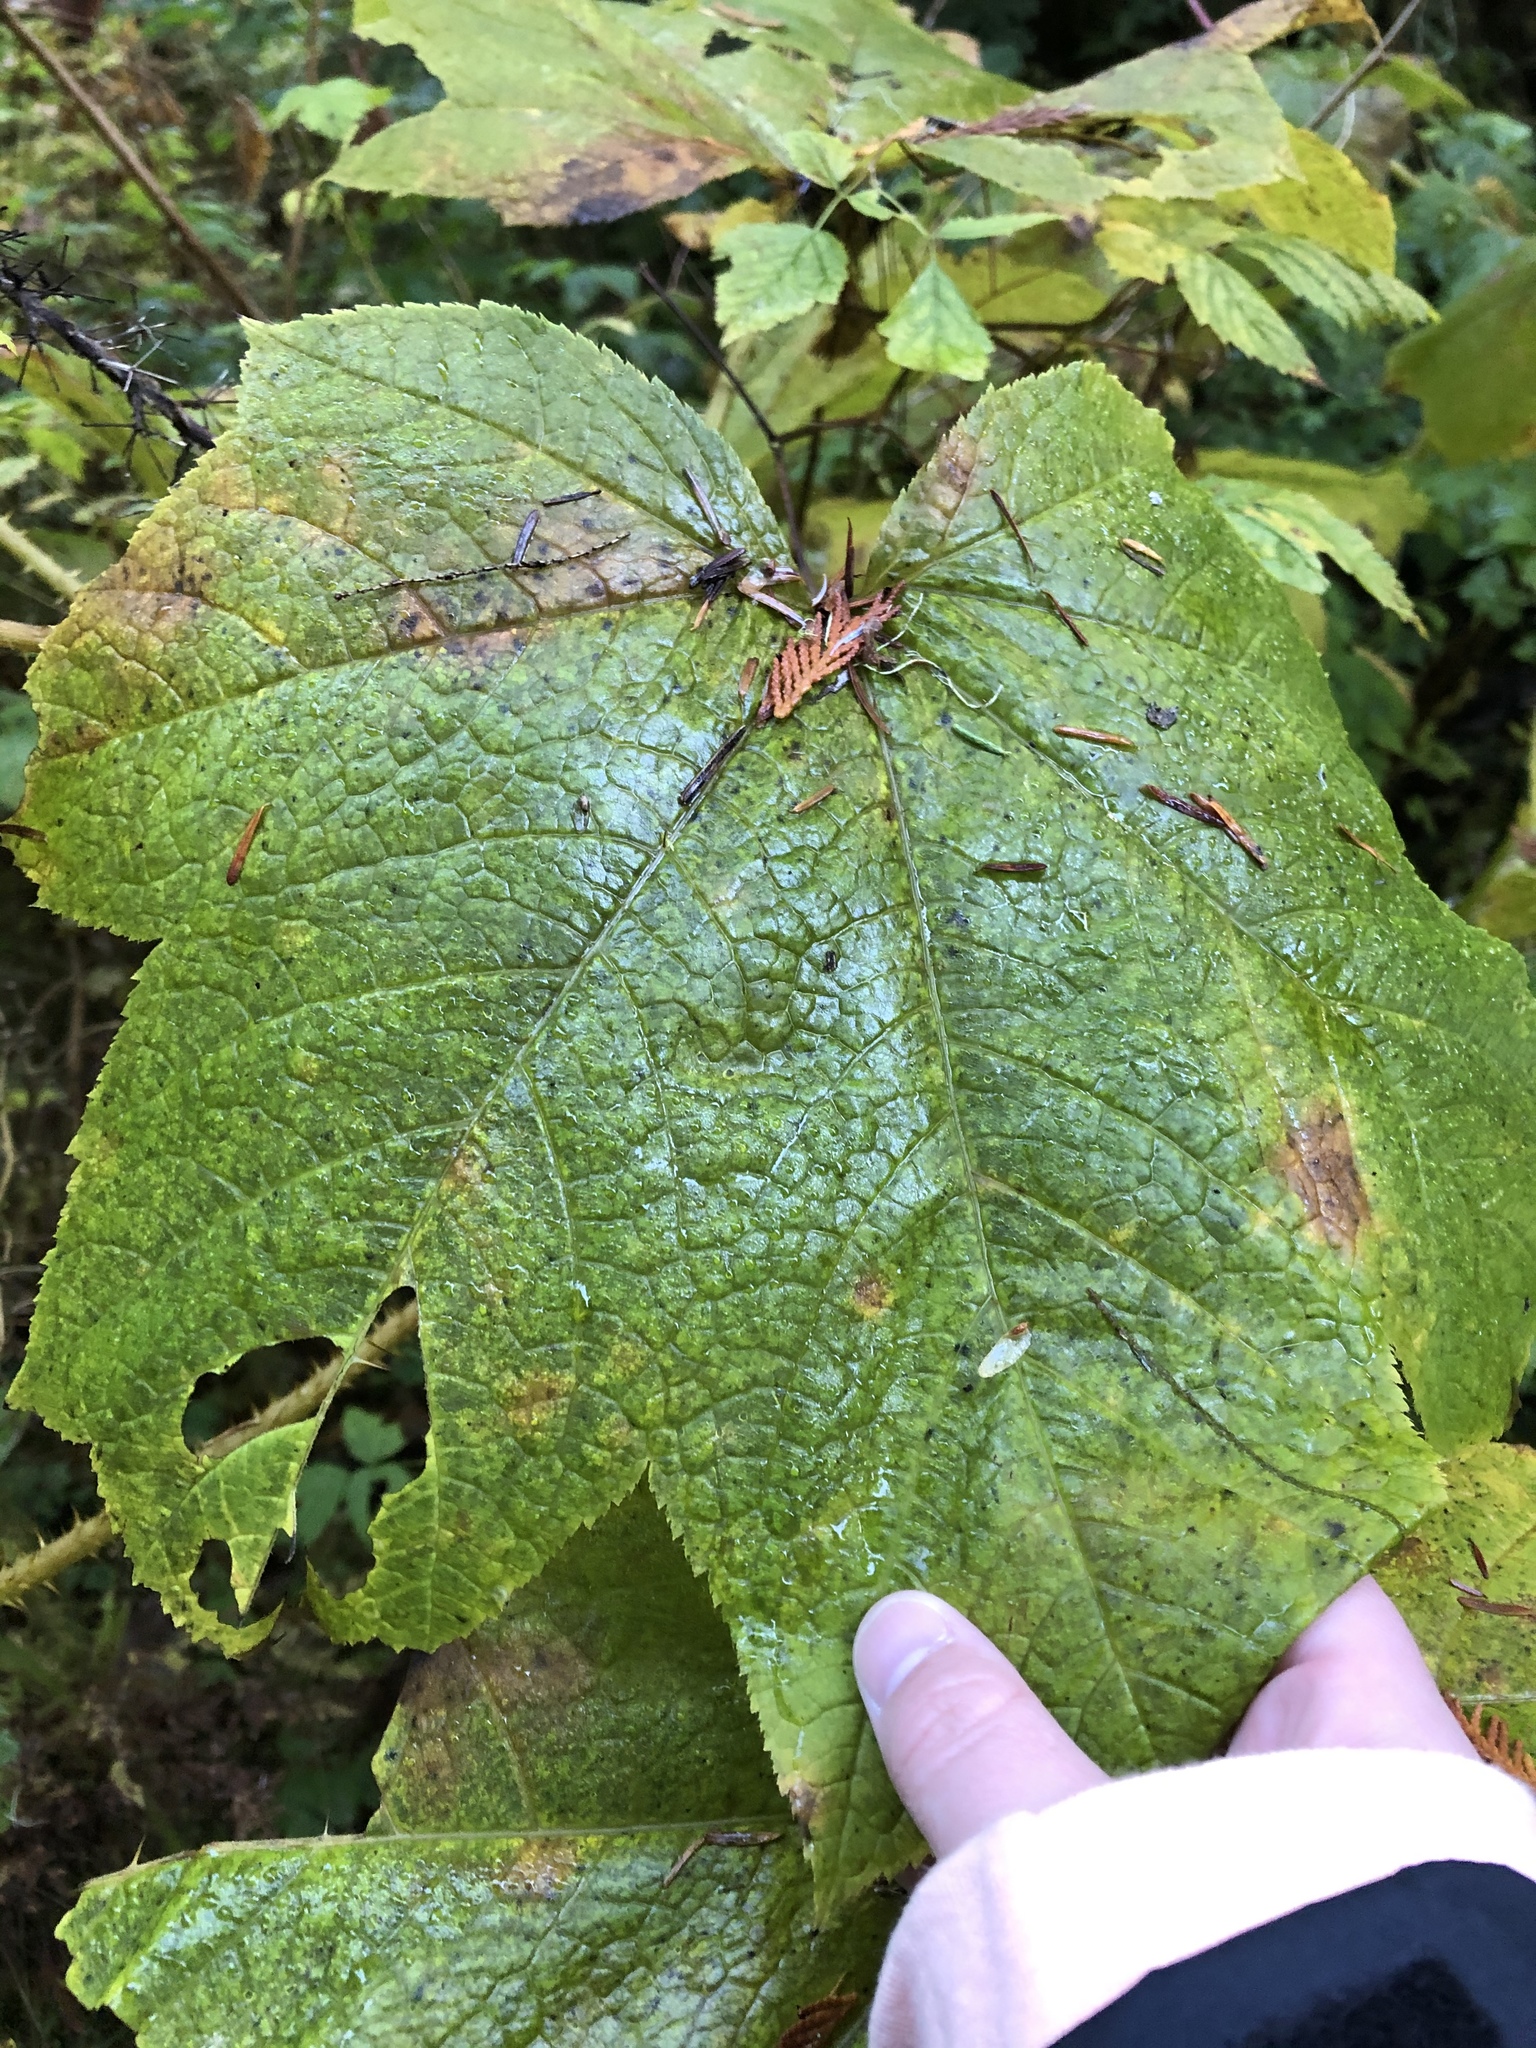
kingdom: Plantae
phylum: Tracheophyta
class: Magnoliopsida
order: Apiales
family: Araliaceae
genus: Oplopanax
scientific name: Oplopanax horridus
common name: Devil's walking-stick
